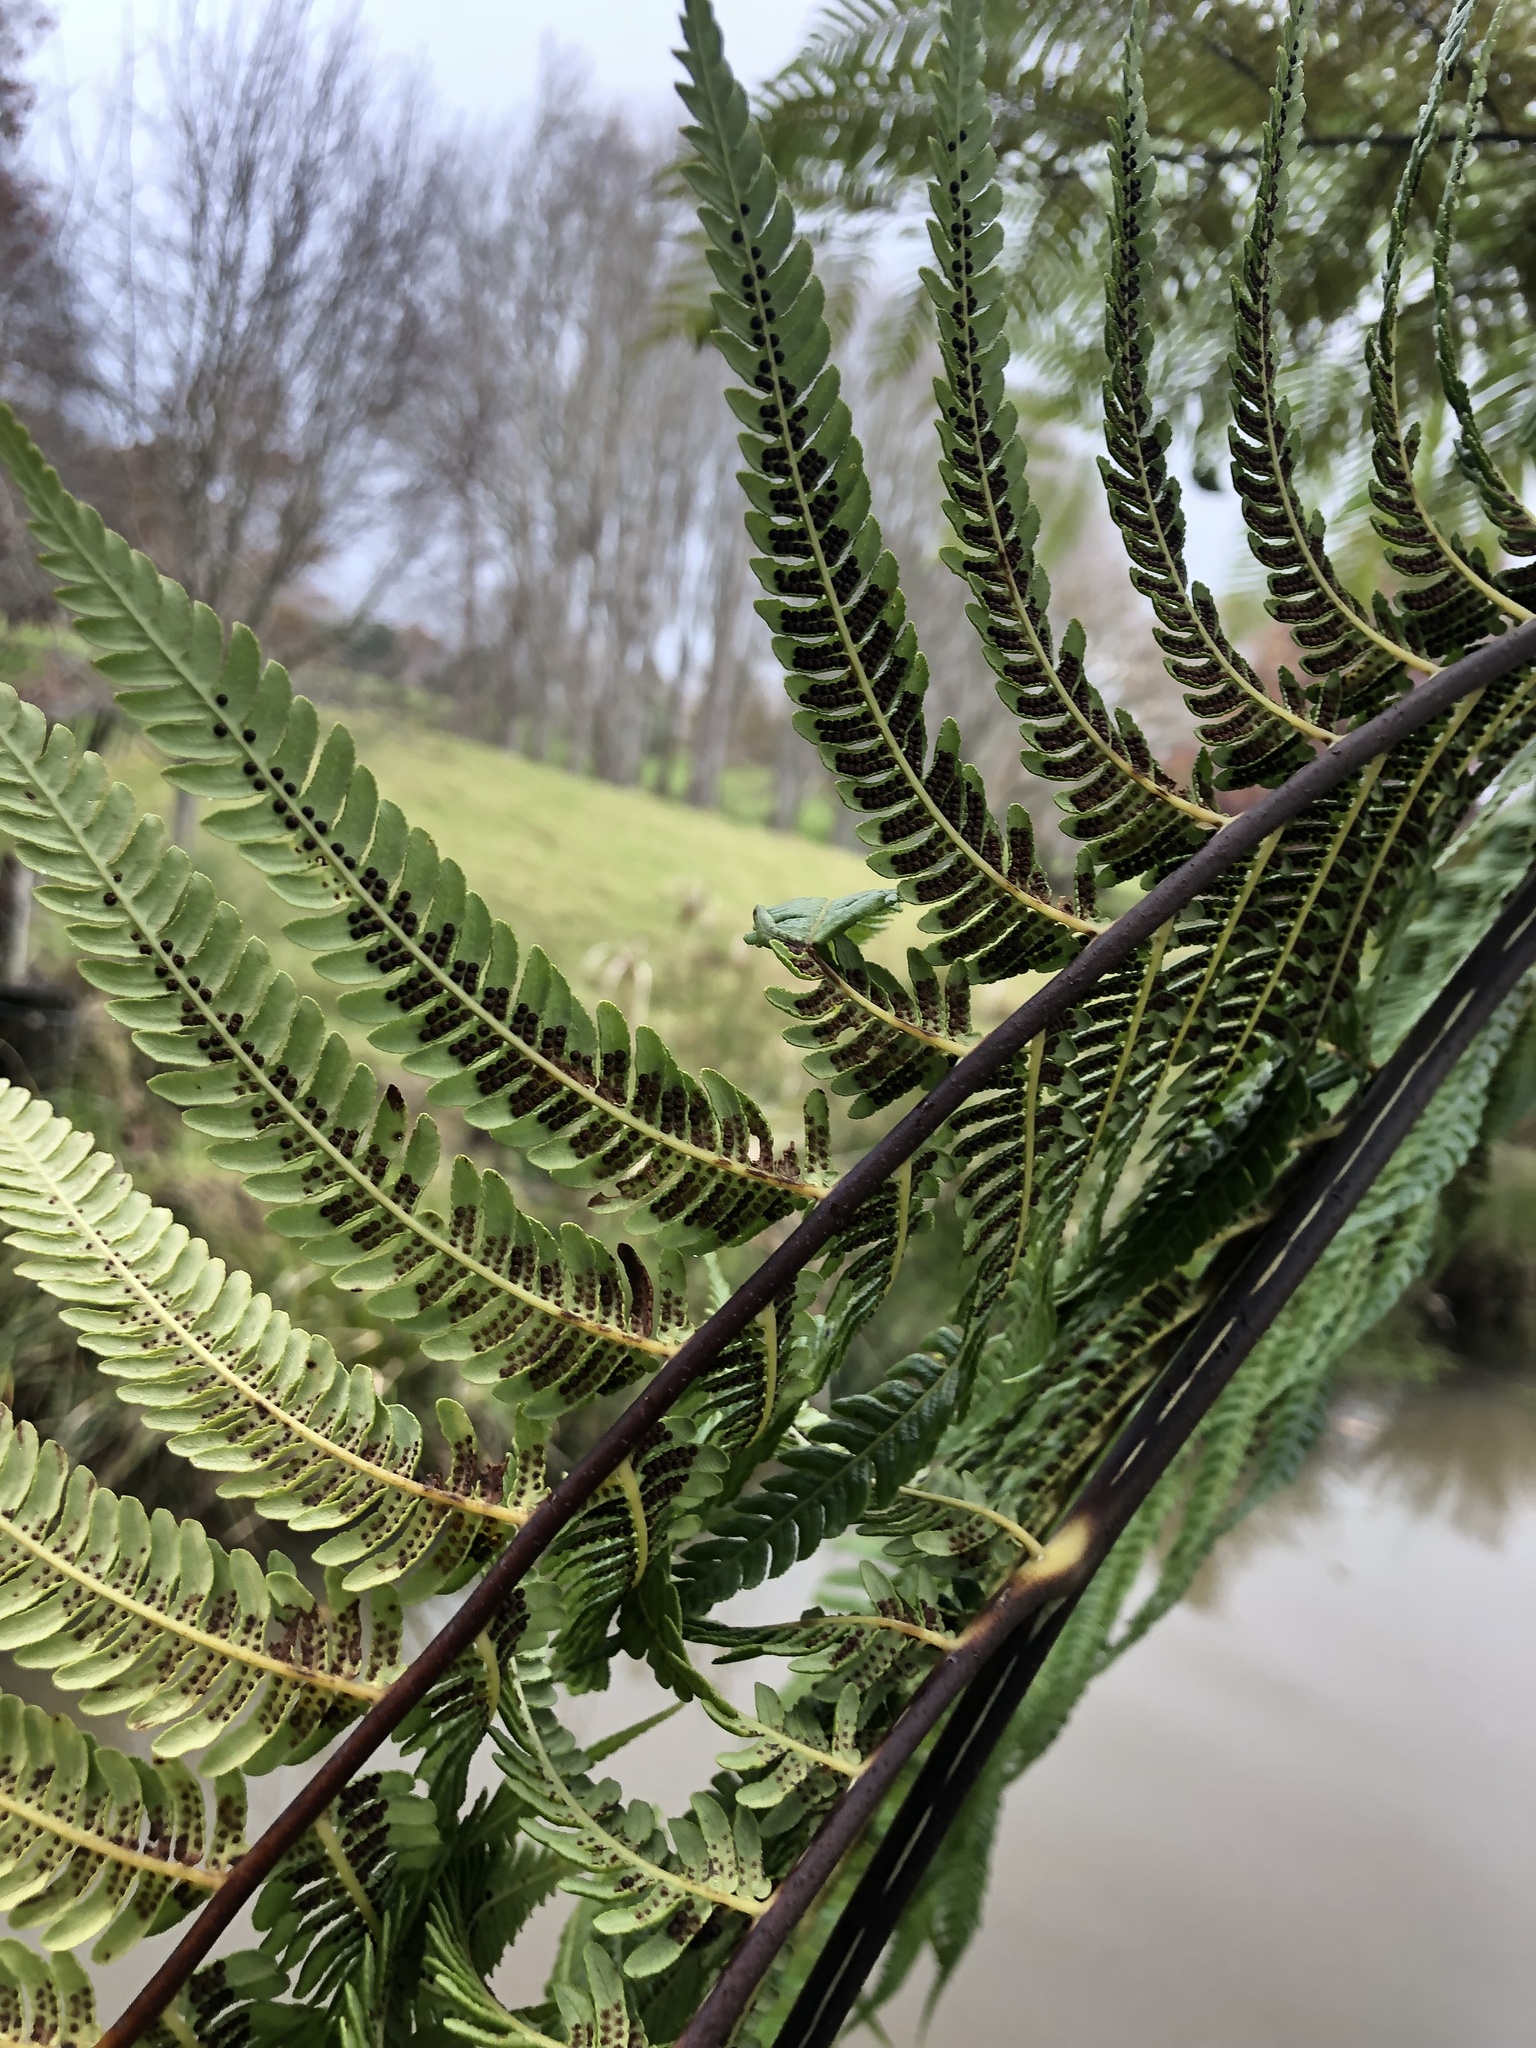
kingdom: Plantae
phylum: Tracheophyta
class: Polypodiopsida
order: Cyatheales
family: Cyatheaceae
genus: Sphaeropteris
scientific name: Sphaeropteris medullaris
